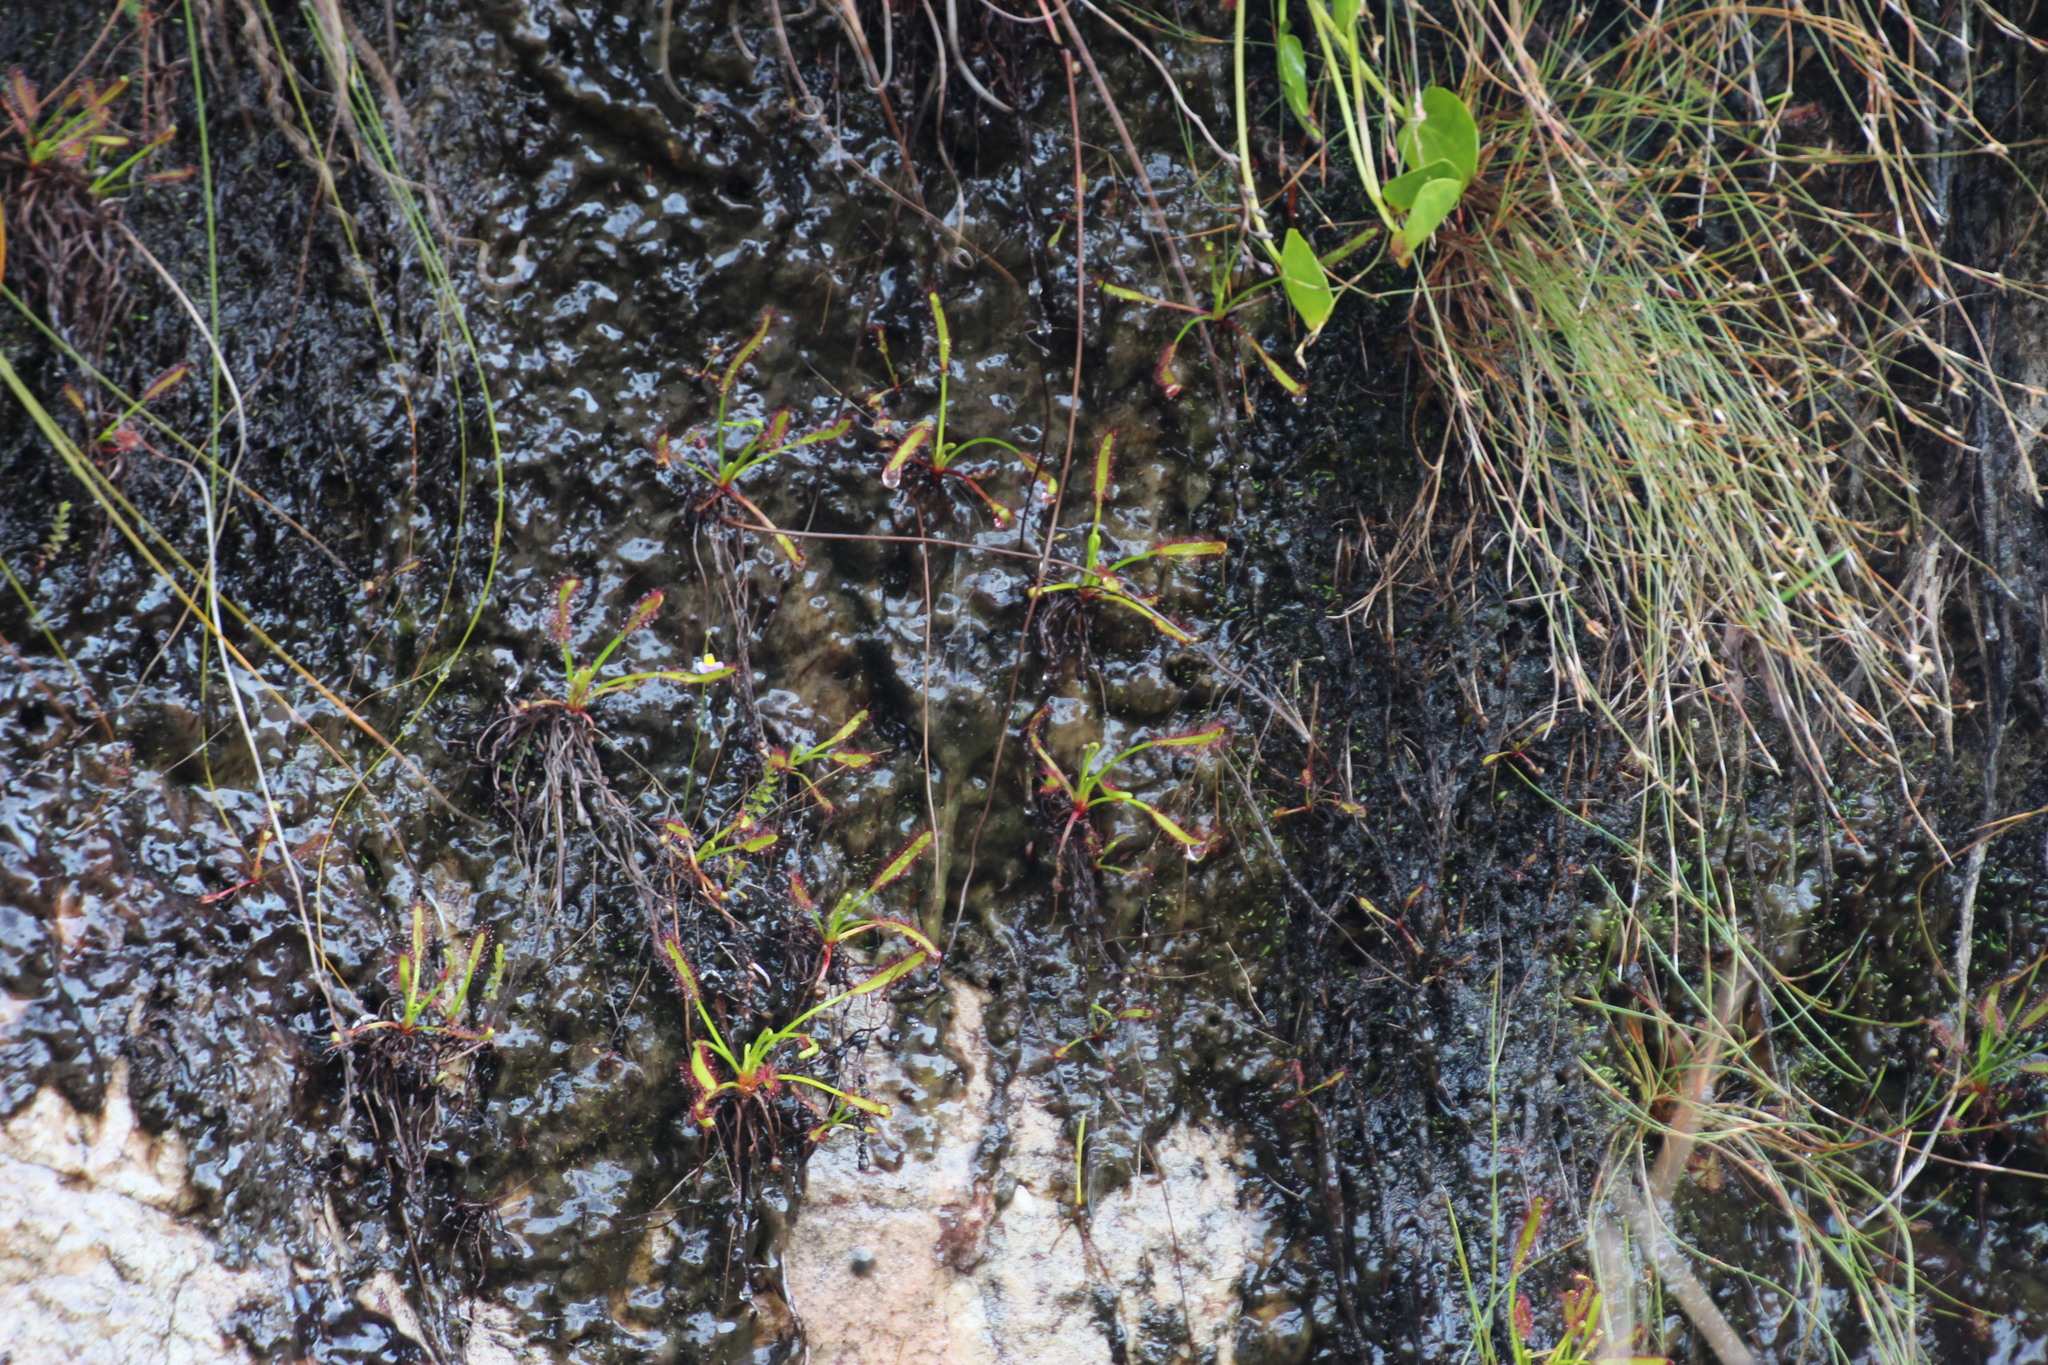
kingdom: Plantae
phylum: Tracheophyta
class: Magnoliopsida
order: Caryophyllales
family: Droseraceae
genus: Drosera
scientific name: Drosera capensis
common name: Cape sundew
